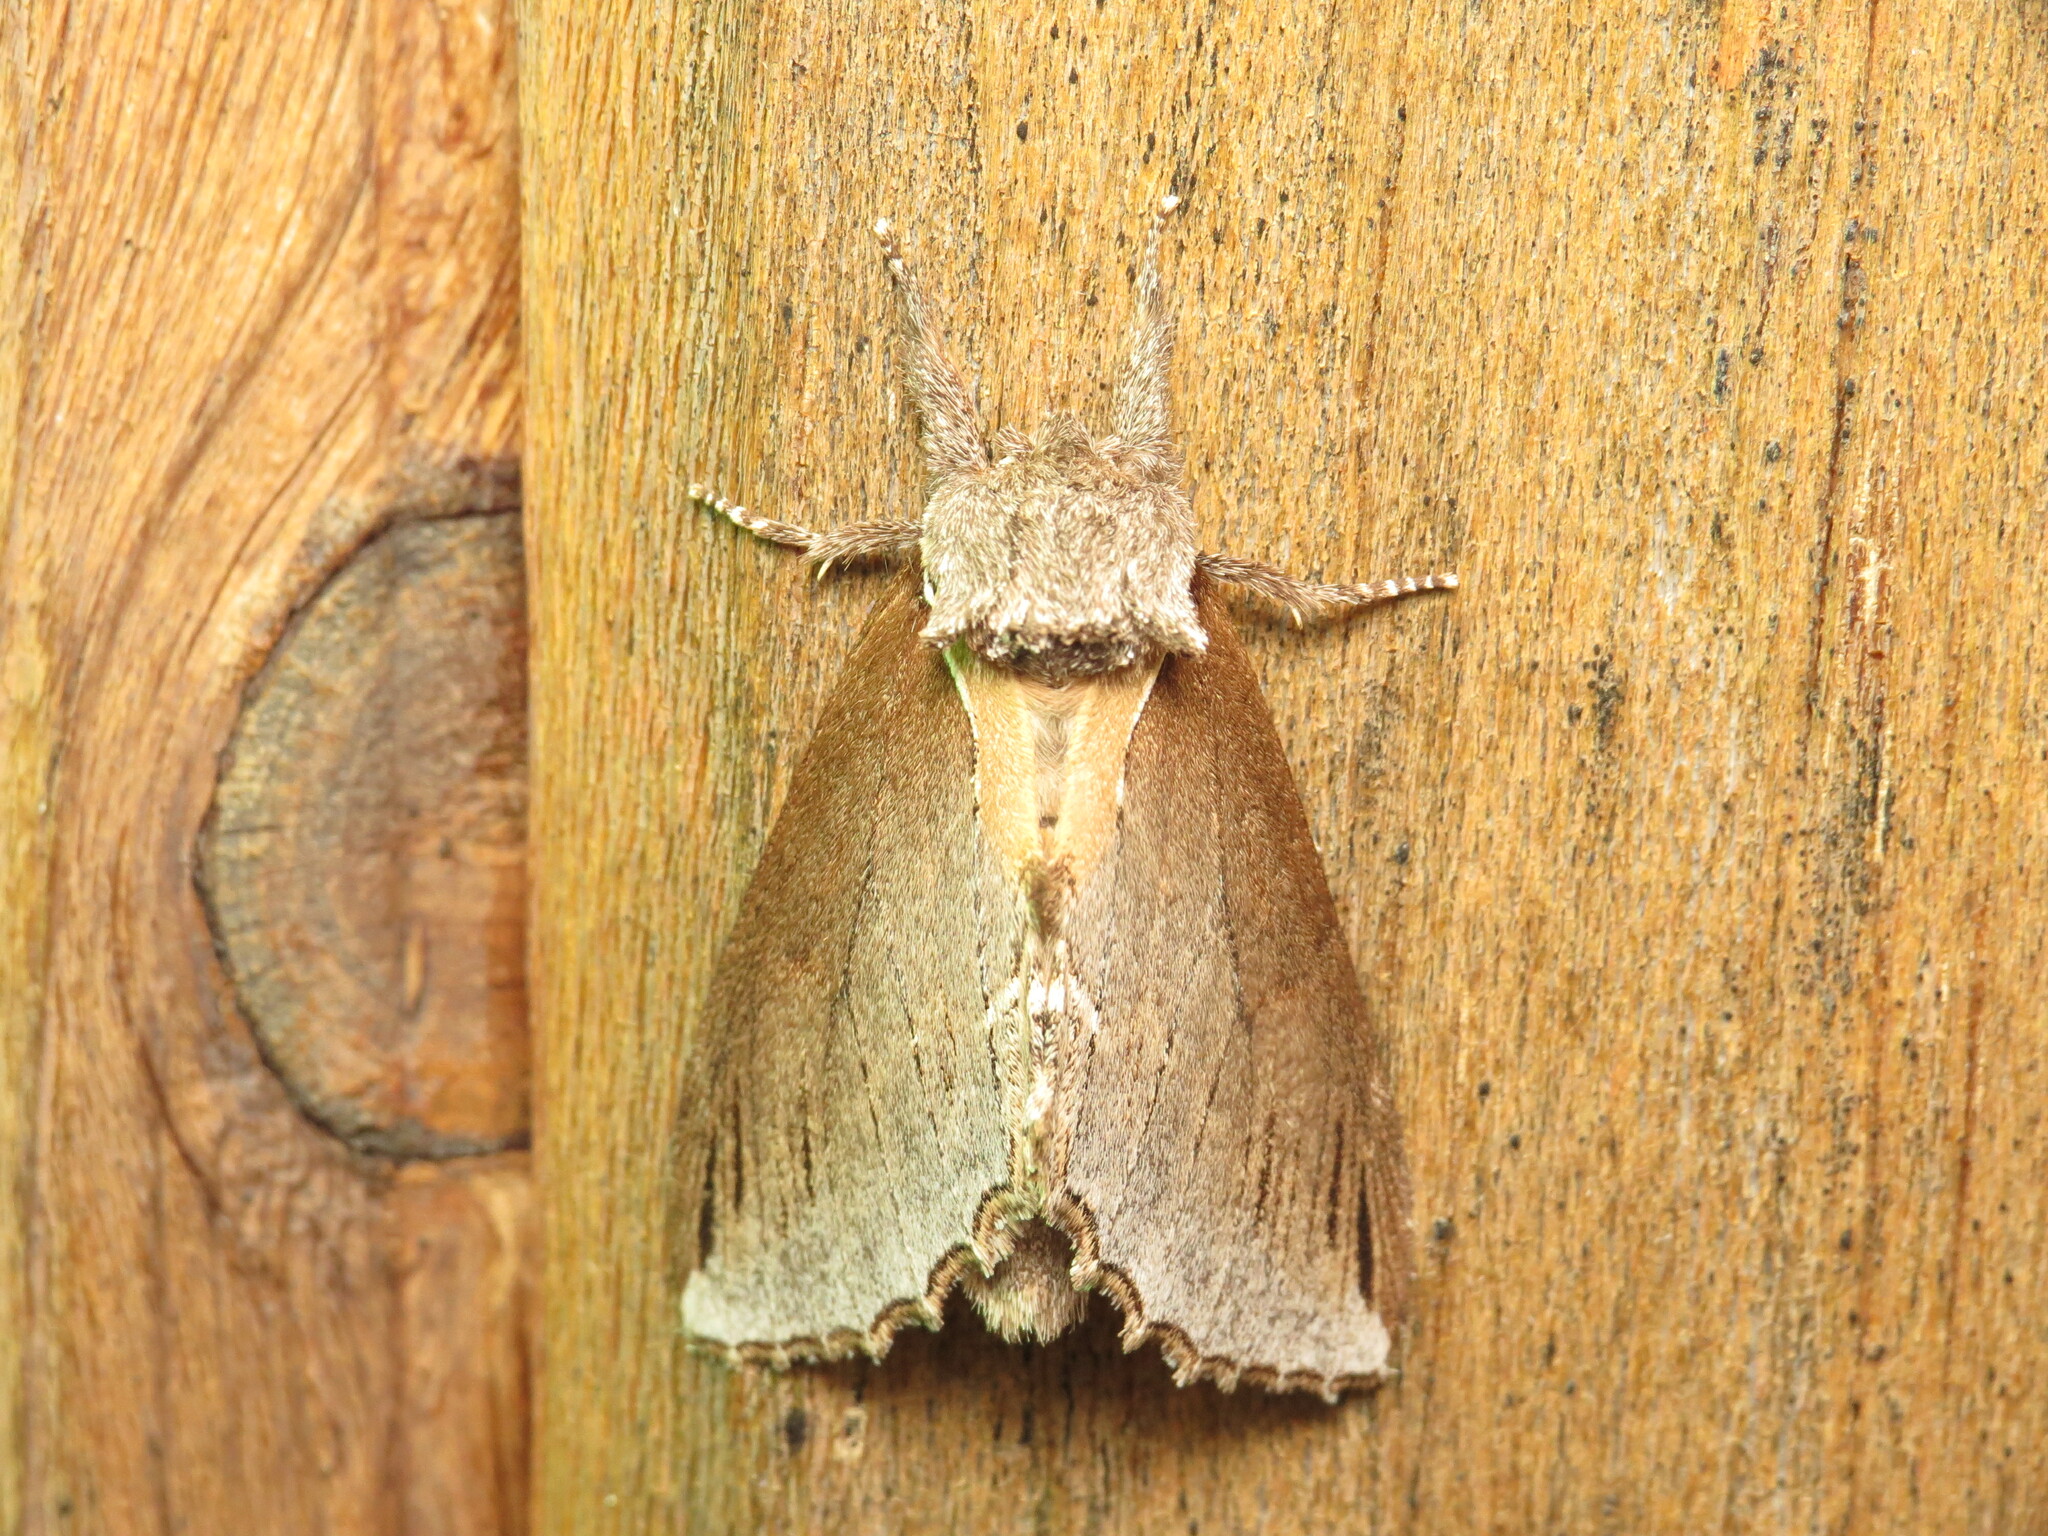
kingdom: Animalia
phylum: Arthropoda
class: Insecta
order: Lepidoptera
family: Notodontidae
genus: Pheosidea
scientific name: Pheosidea elegans
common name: Elegant prominent
